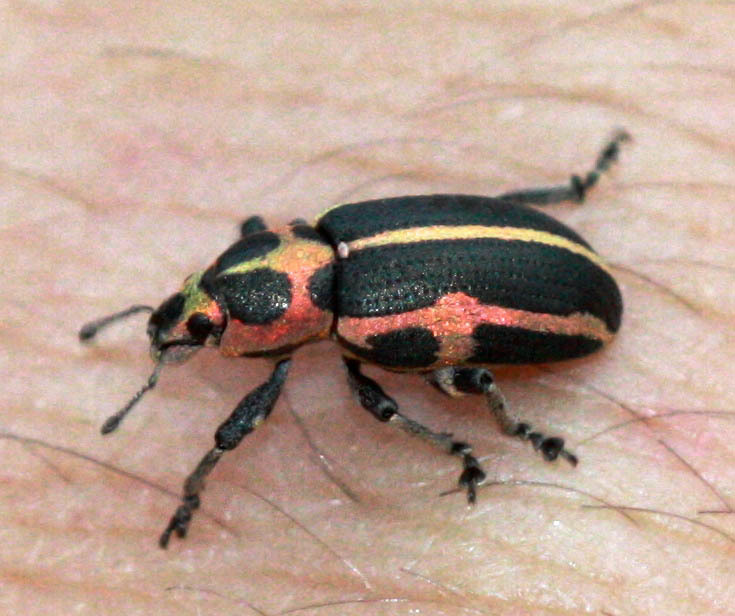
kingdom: Animalia
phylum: Arthropoda
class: Insecta
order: Coleoptera
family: Curculionidae
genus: Eudiagogus
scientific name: Eudiagogus pulcher
